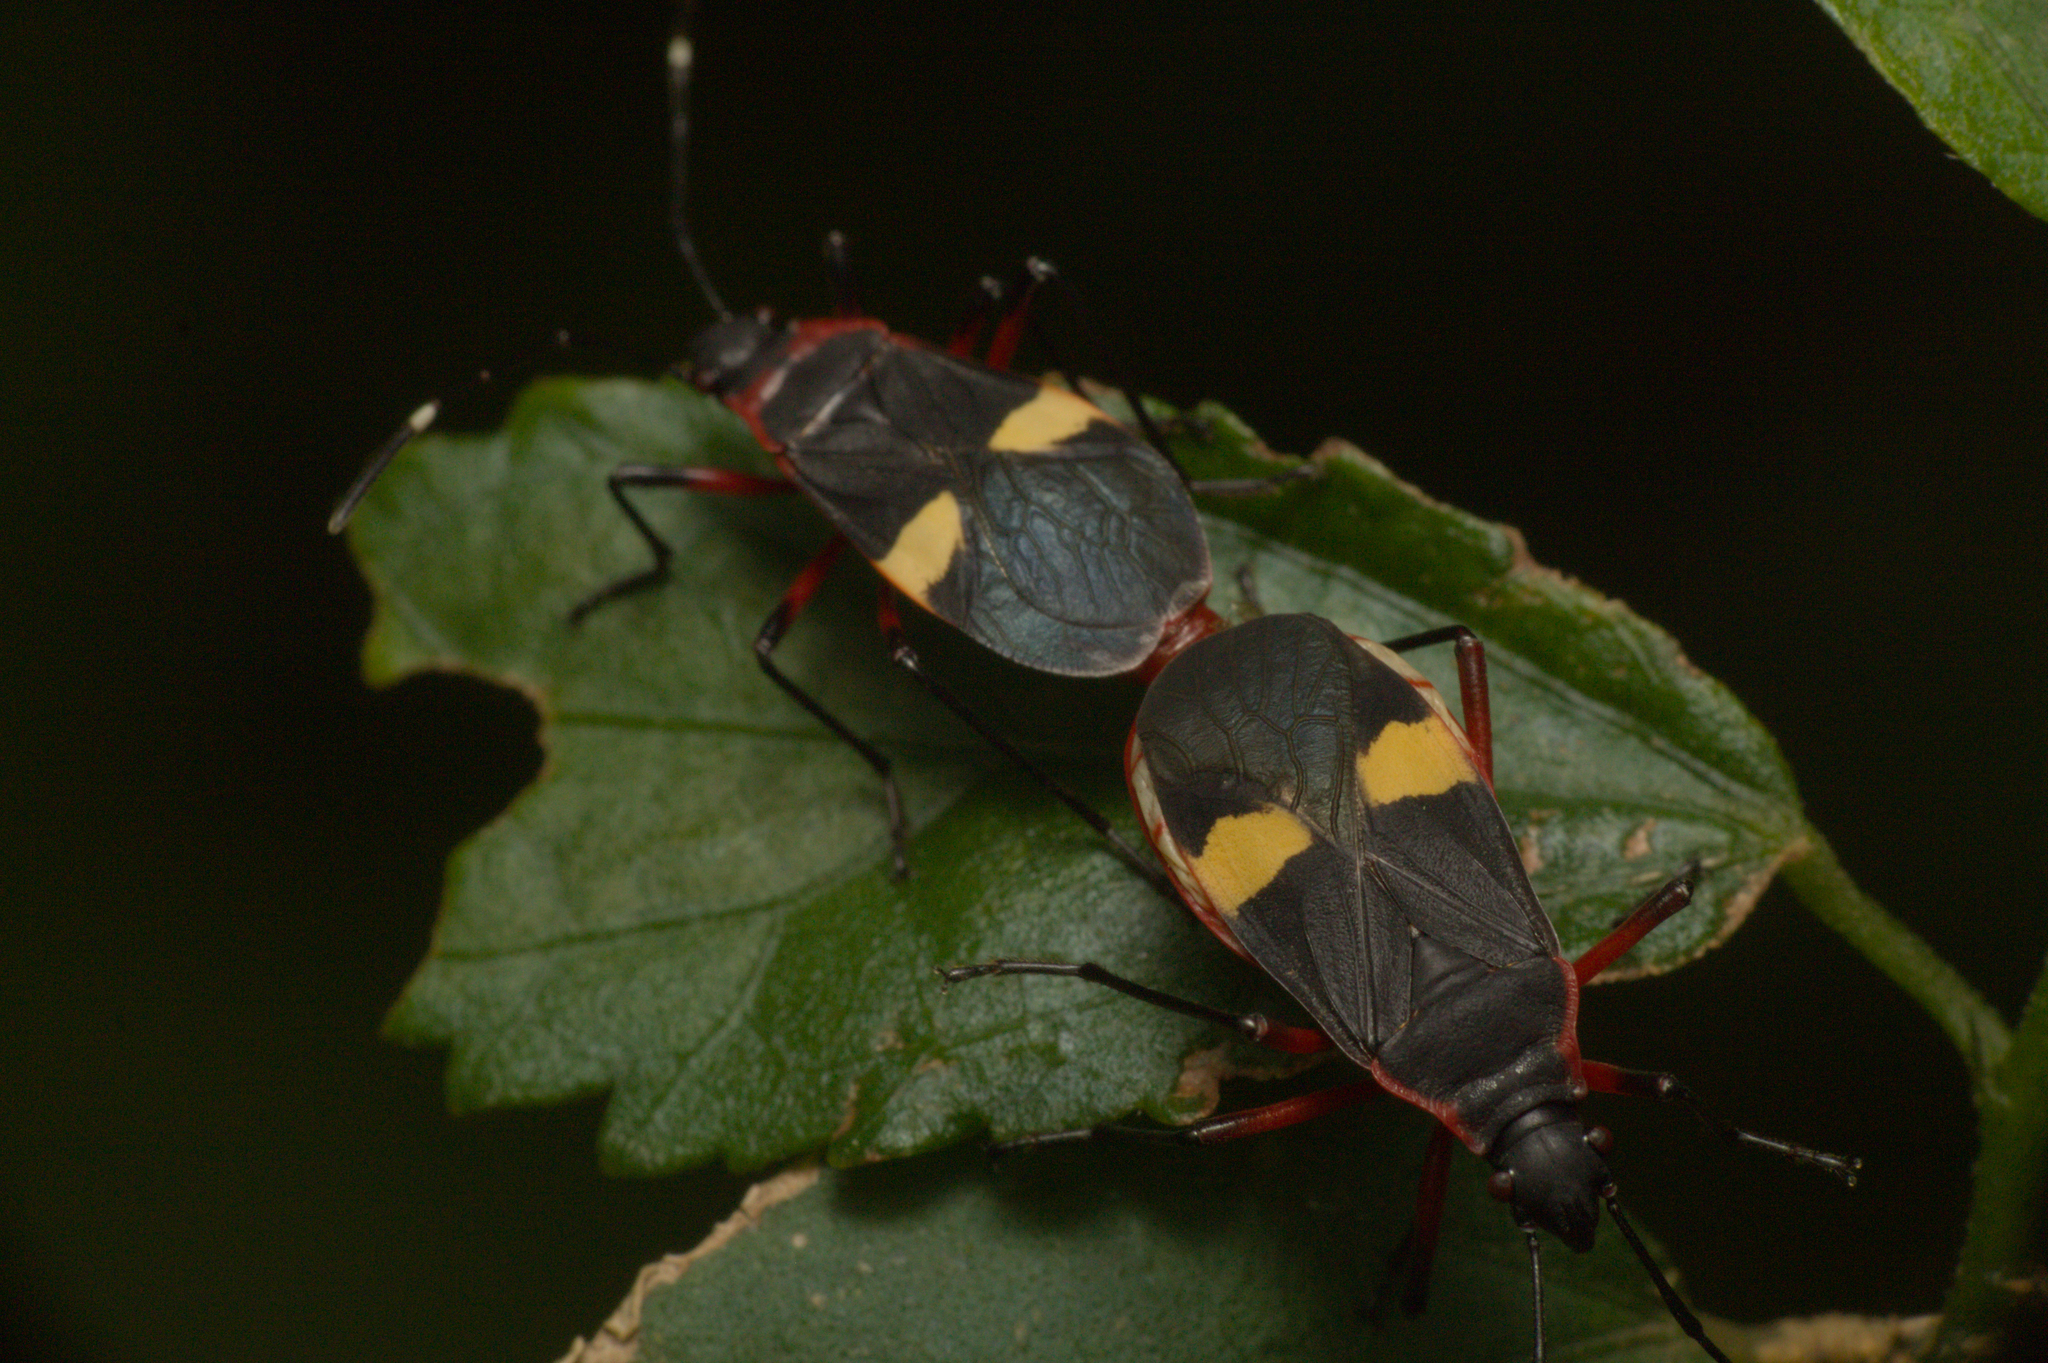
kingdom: Animalia
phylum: Arthropoda
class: Insecta
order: Hemiptera
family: Pyrrhocoridae
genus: Dysdercus
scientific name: Dysdercus albofasciatus
